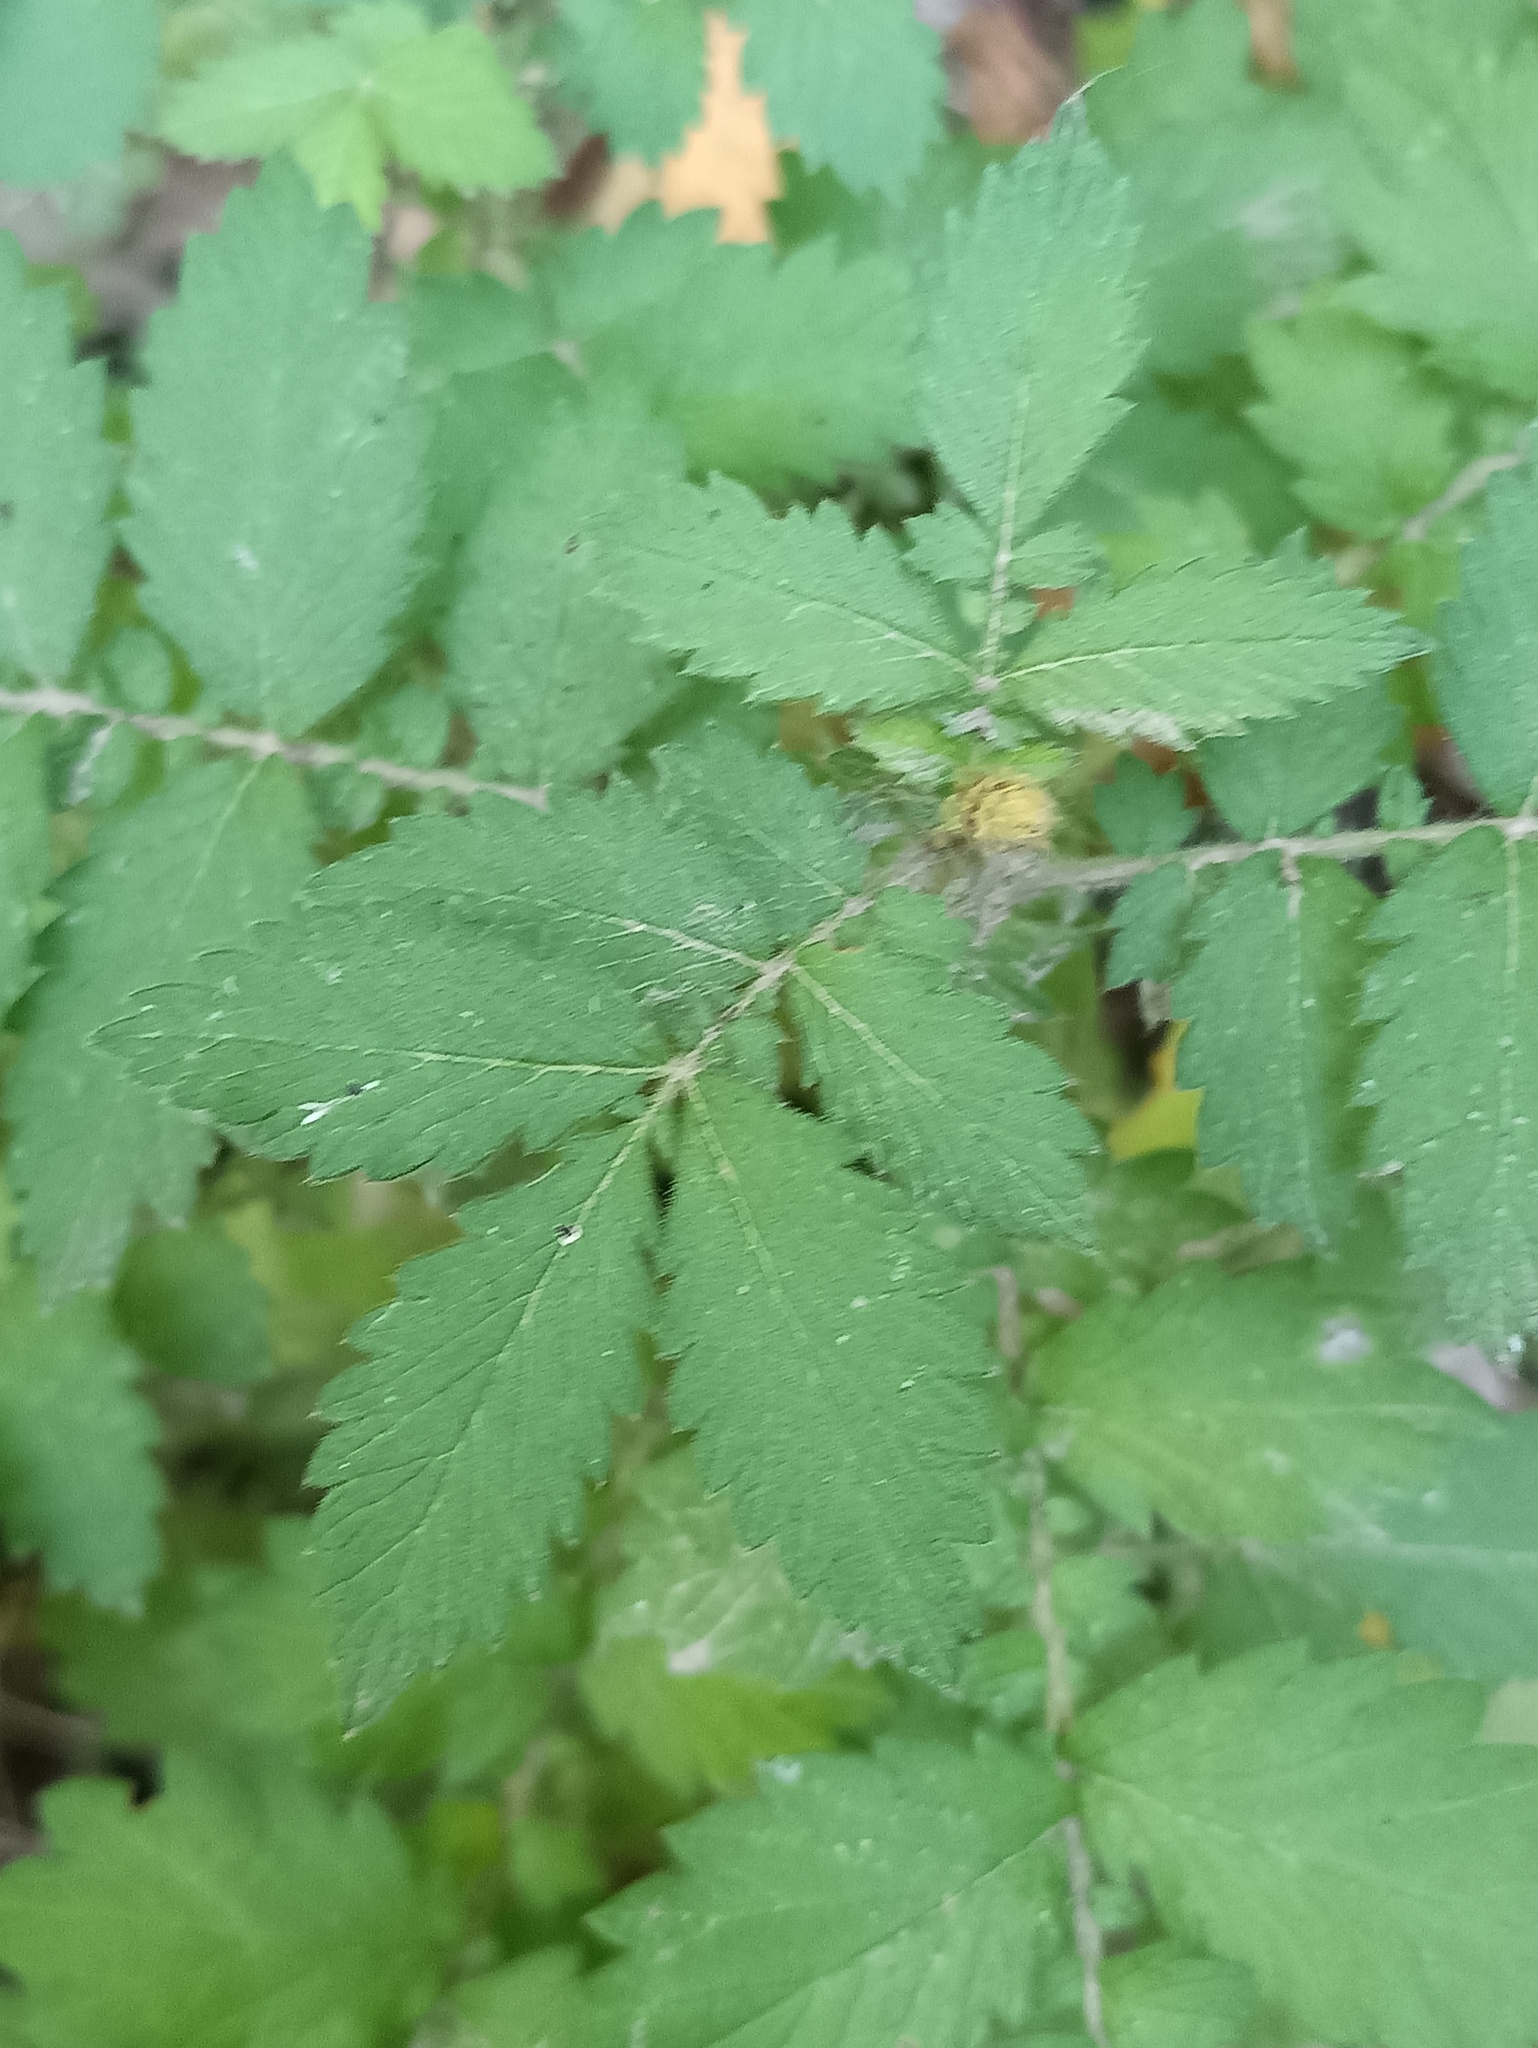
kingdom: Plantae
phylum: Tracheophyta
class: Magnoliopsida
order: Rosales
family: Rosaceae
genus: Agrimonia
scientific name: Agrimonia eupatoria
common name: Agrimony
